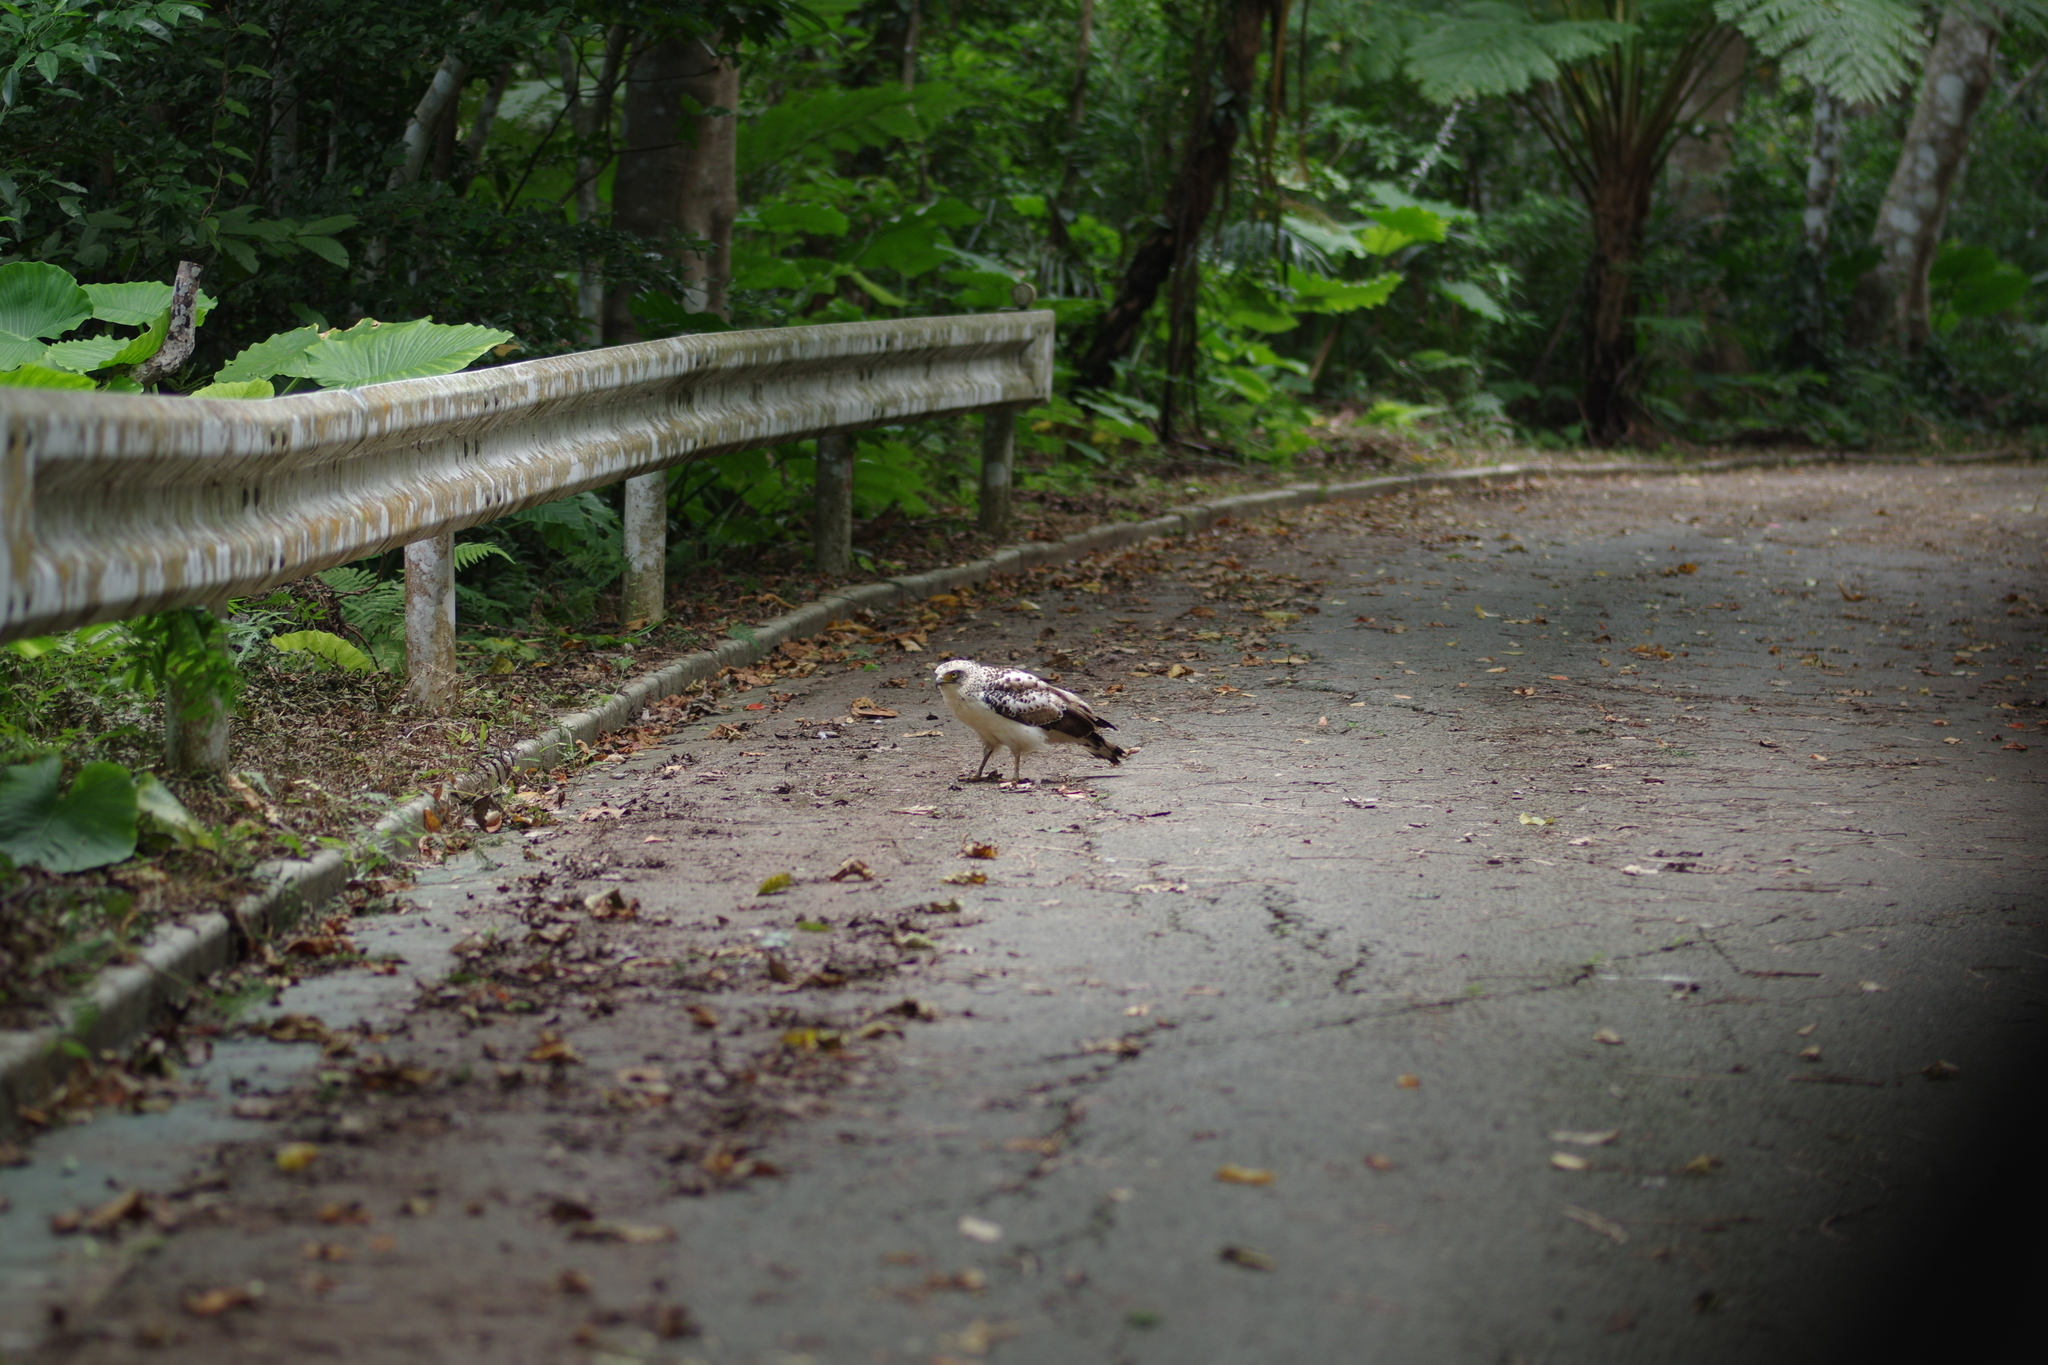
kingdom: Animalia
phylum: Chordata
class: Aves
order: Accipitriformes
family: Accipitridae
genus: Spilornis
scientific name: Spilornis cheela
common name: Crested serpent eagle
